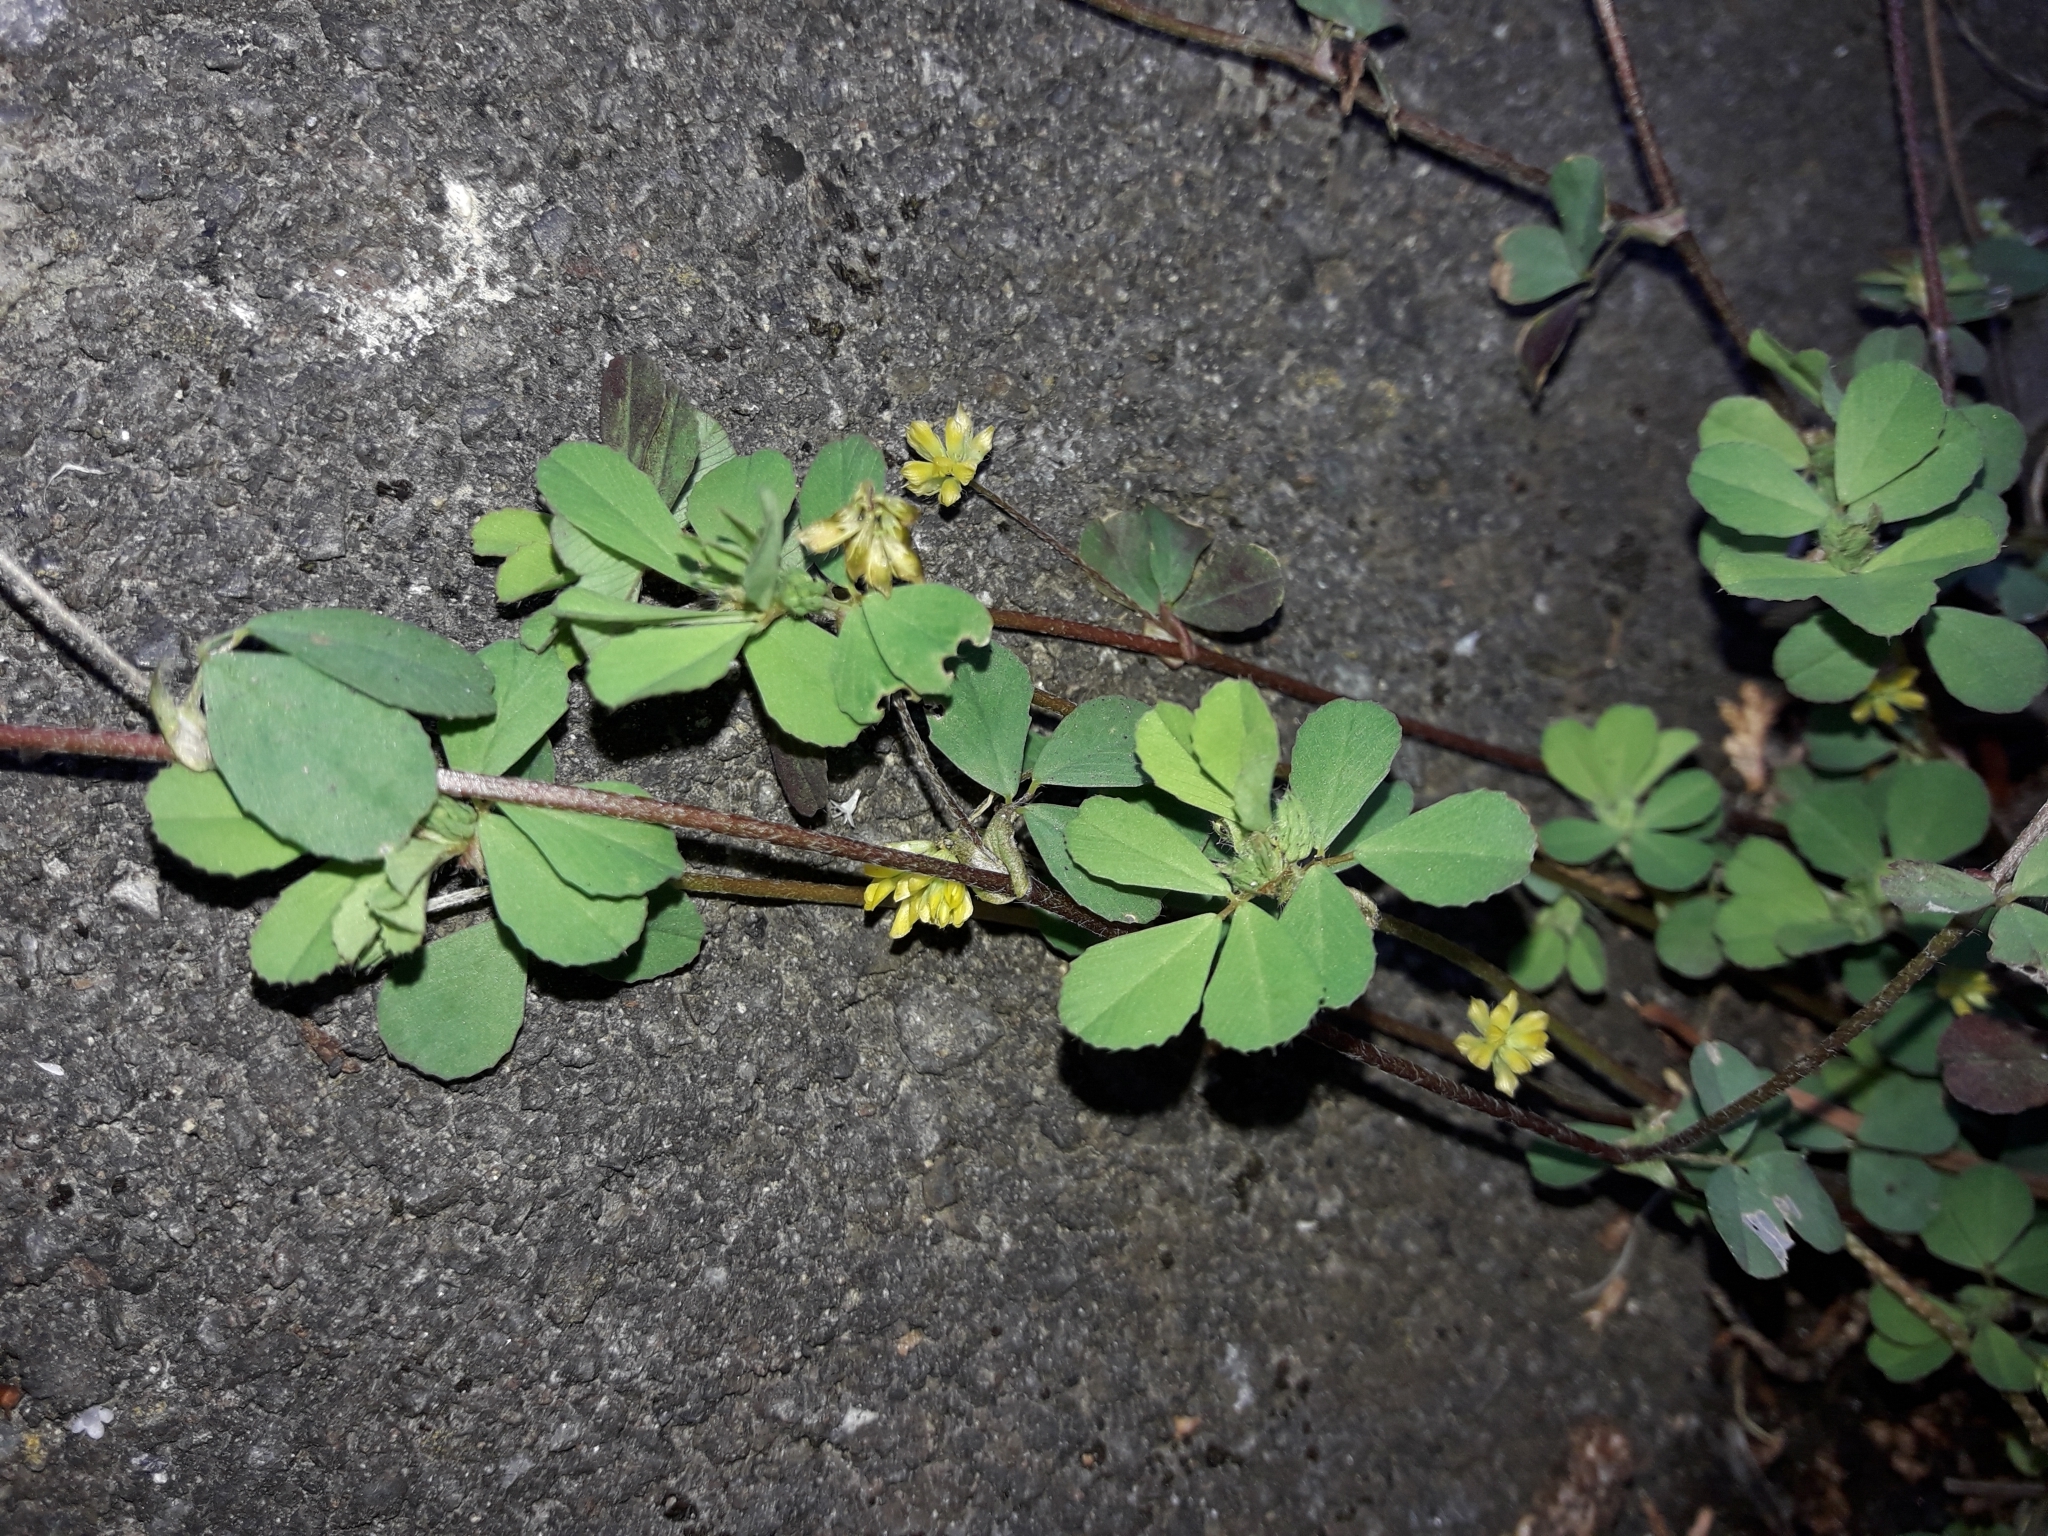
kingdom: Plantae
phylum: Tracheophyta
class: Magnoliopsida
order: Fabales
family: Fabaceae
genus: Trifolium
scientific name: Trifolium dubium
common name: Suckling clover
